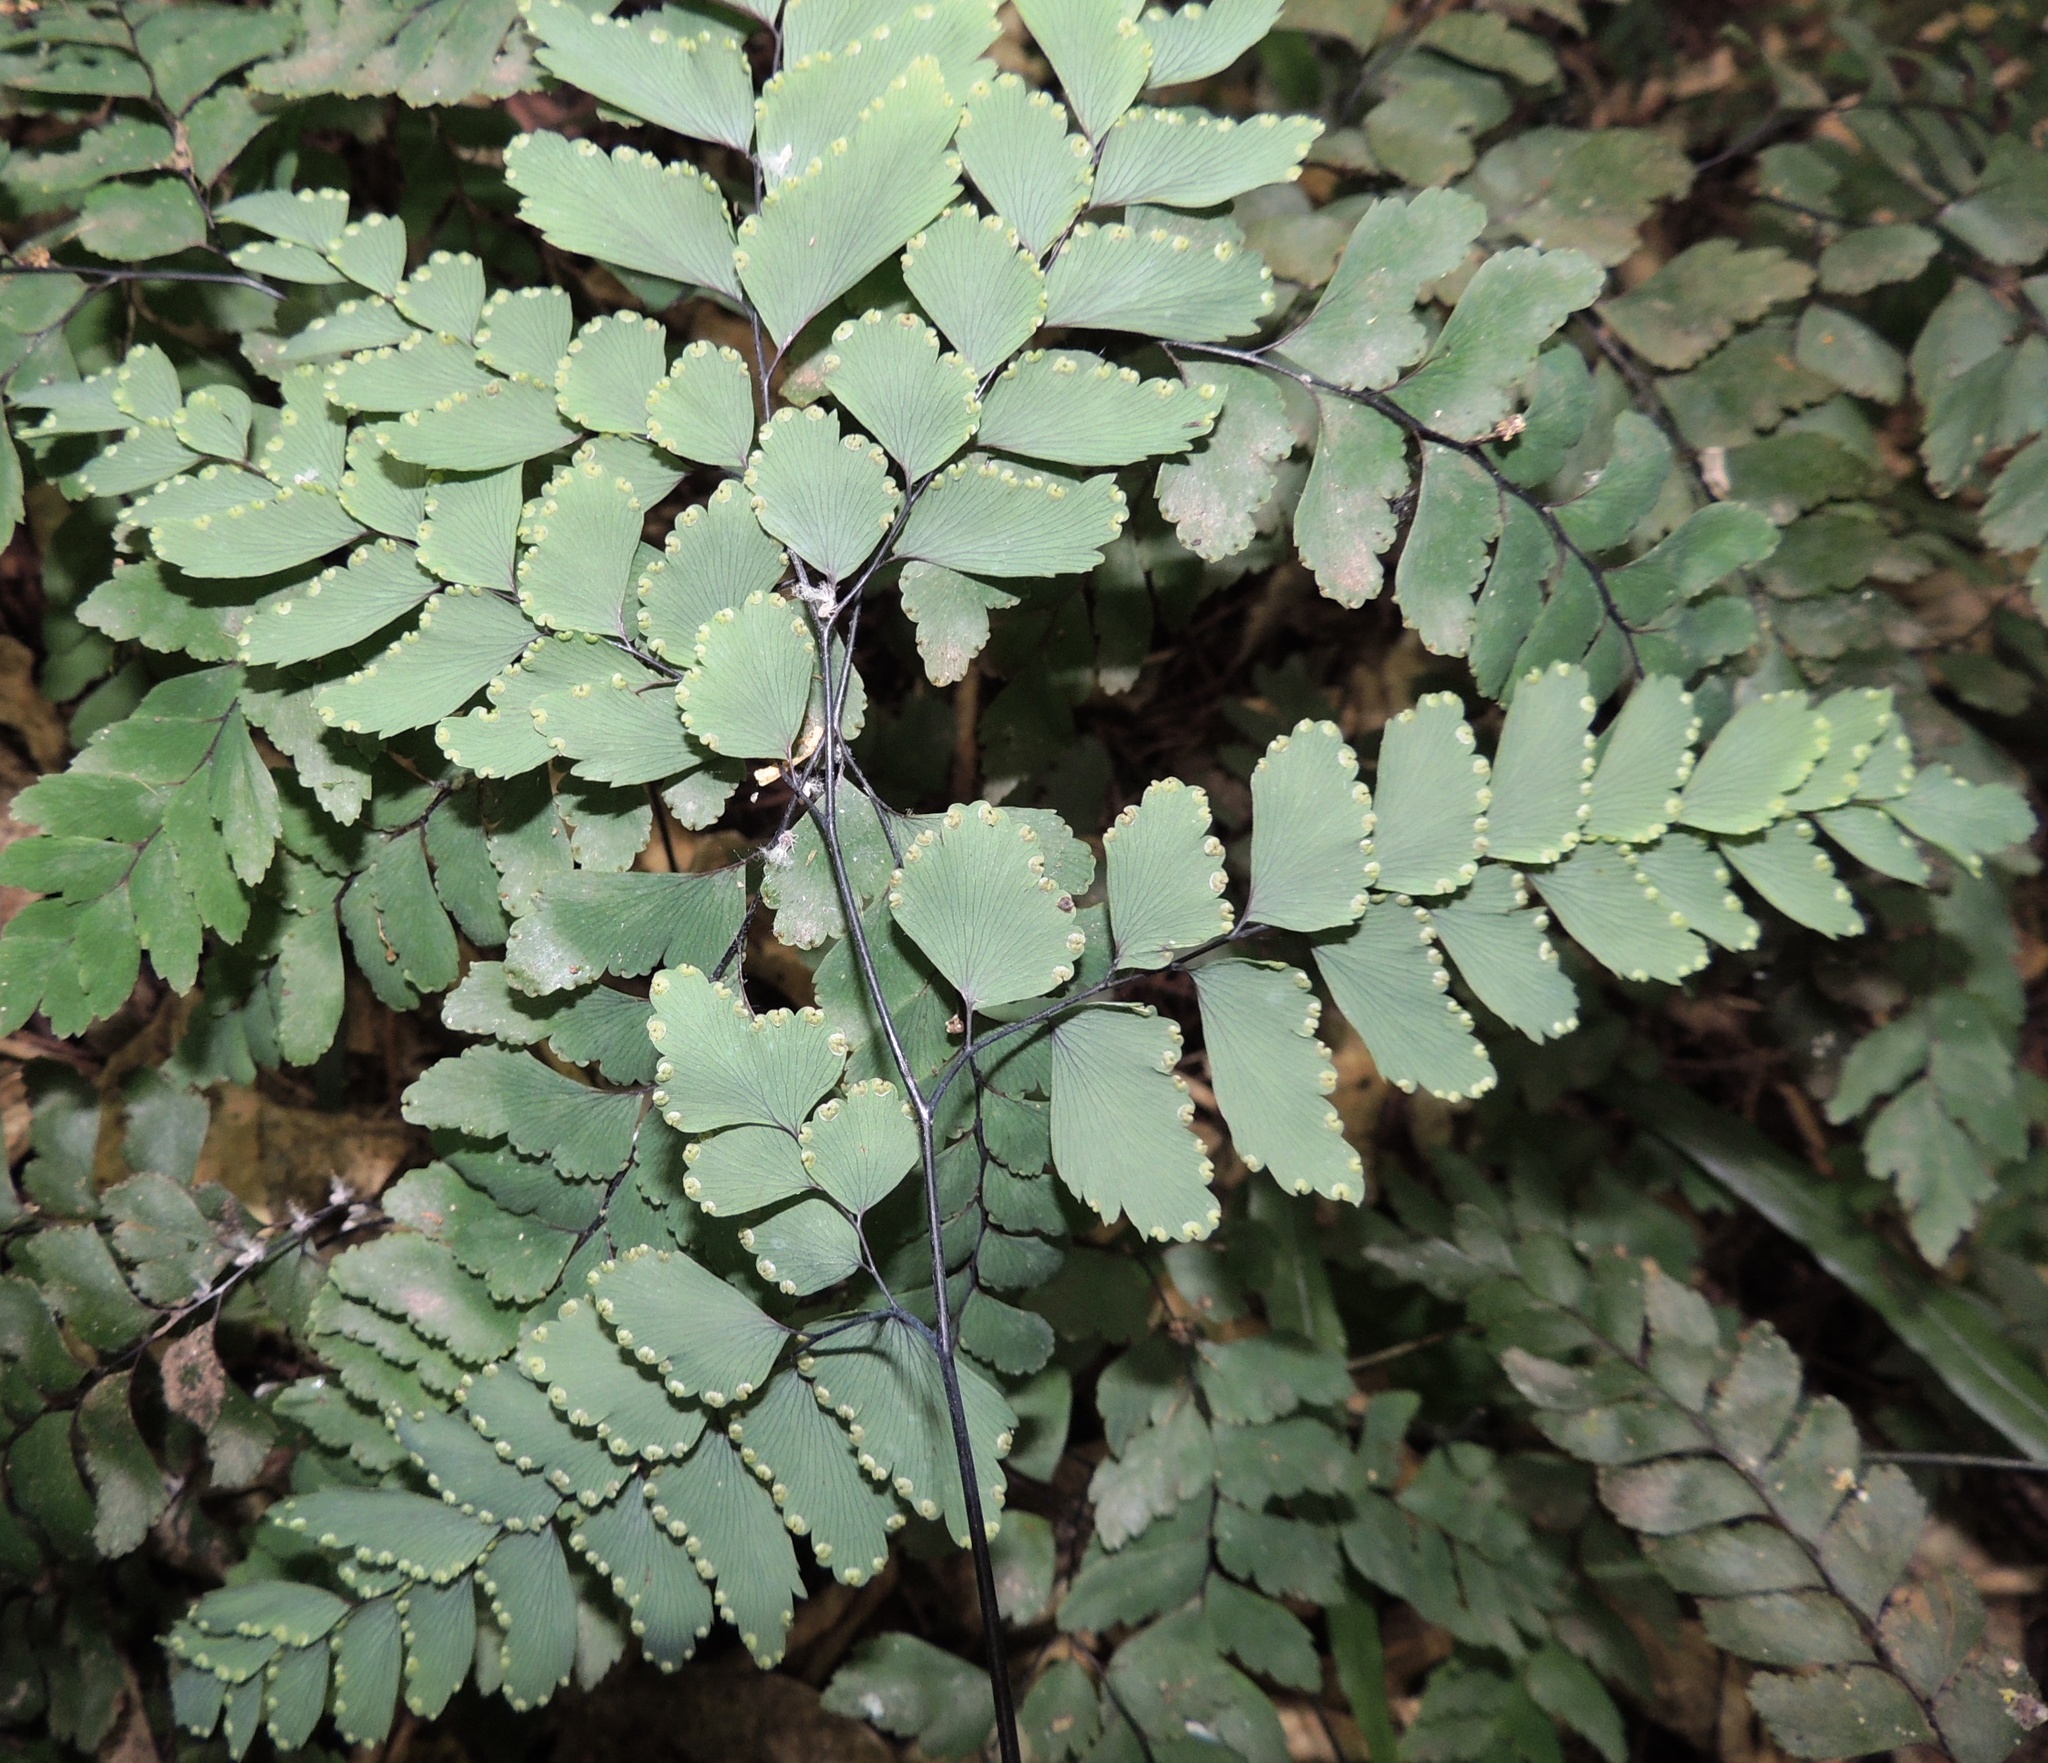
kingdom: Plantae
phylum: Tracheophyta
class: Polypodiopsida
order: Polypodiales
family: Pteridaceae
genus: Adiantum
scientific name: Adiantum cunninghamii
